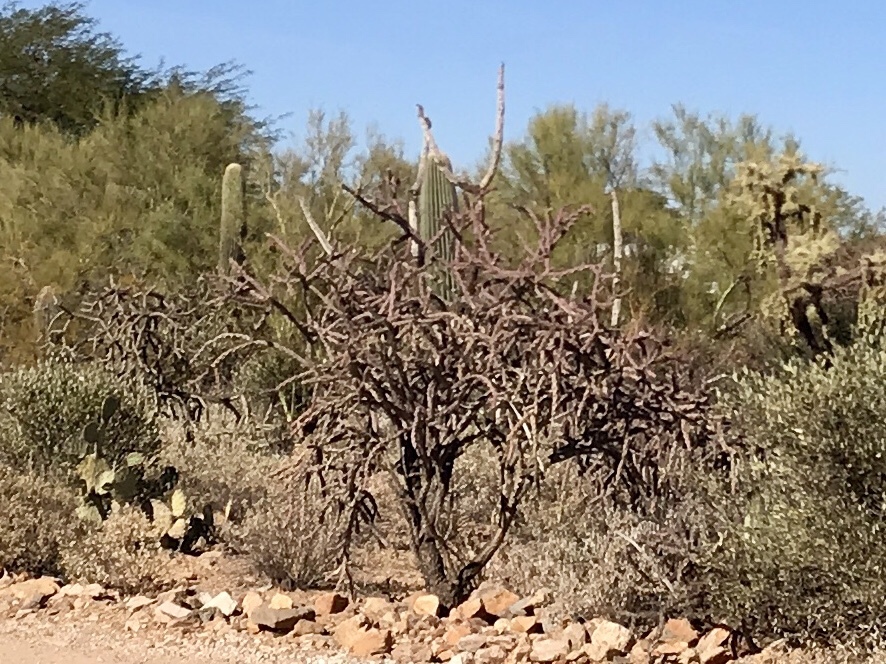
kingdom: Plantae
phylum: Tracheophyta
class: Magnoliopsida
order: Caryophyllales
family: Cactaceae
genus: Cylindropuntia
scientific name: Cylindropuntia thurberi
